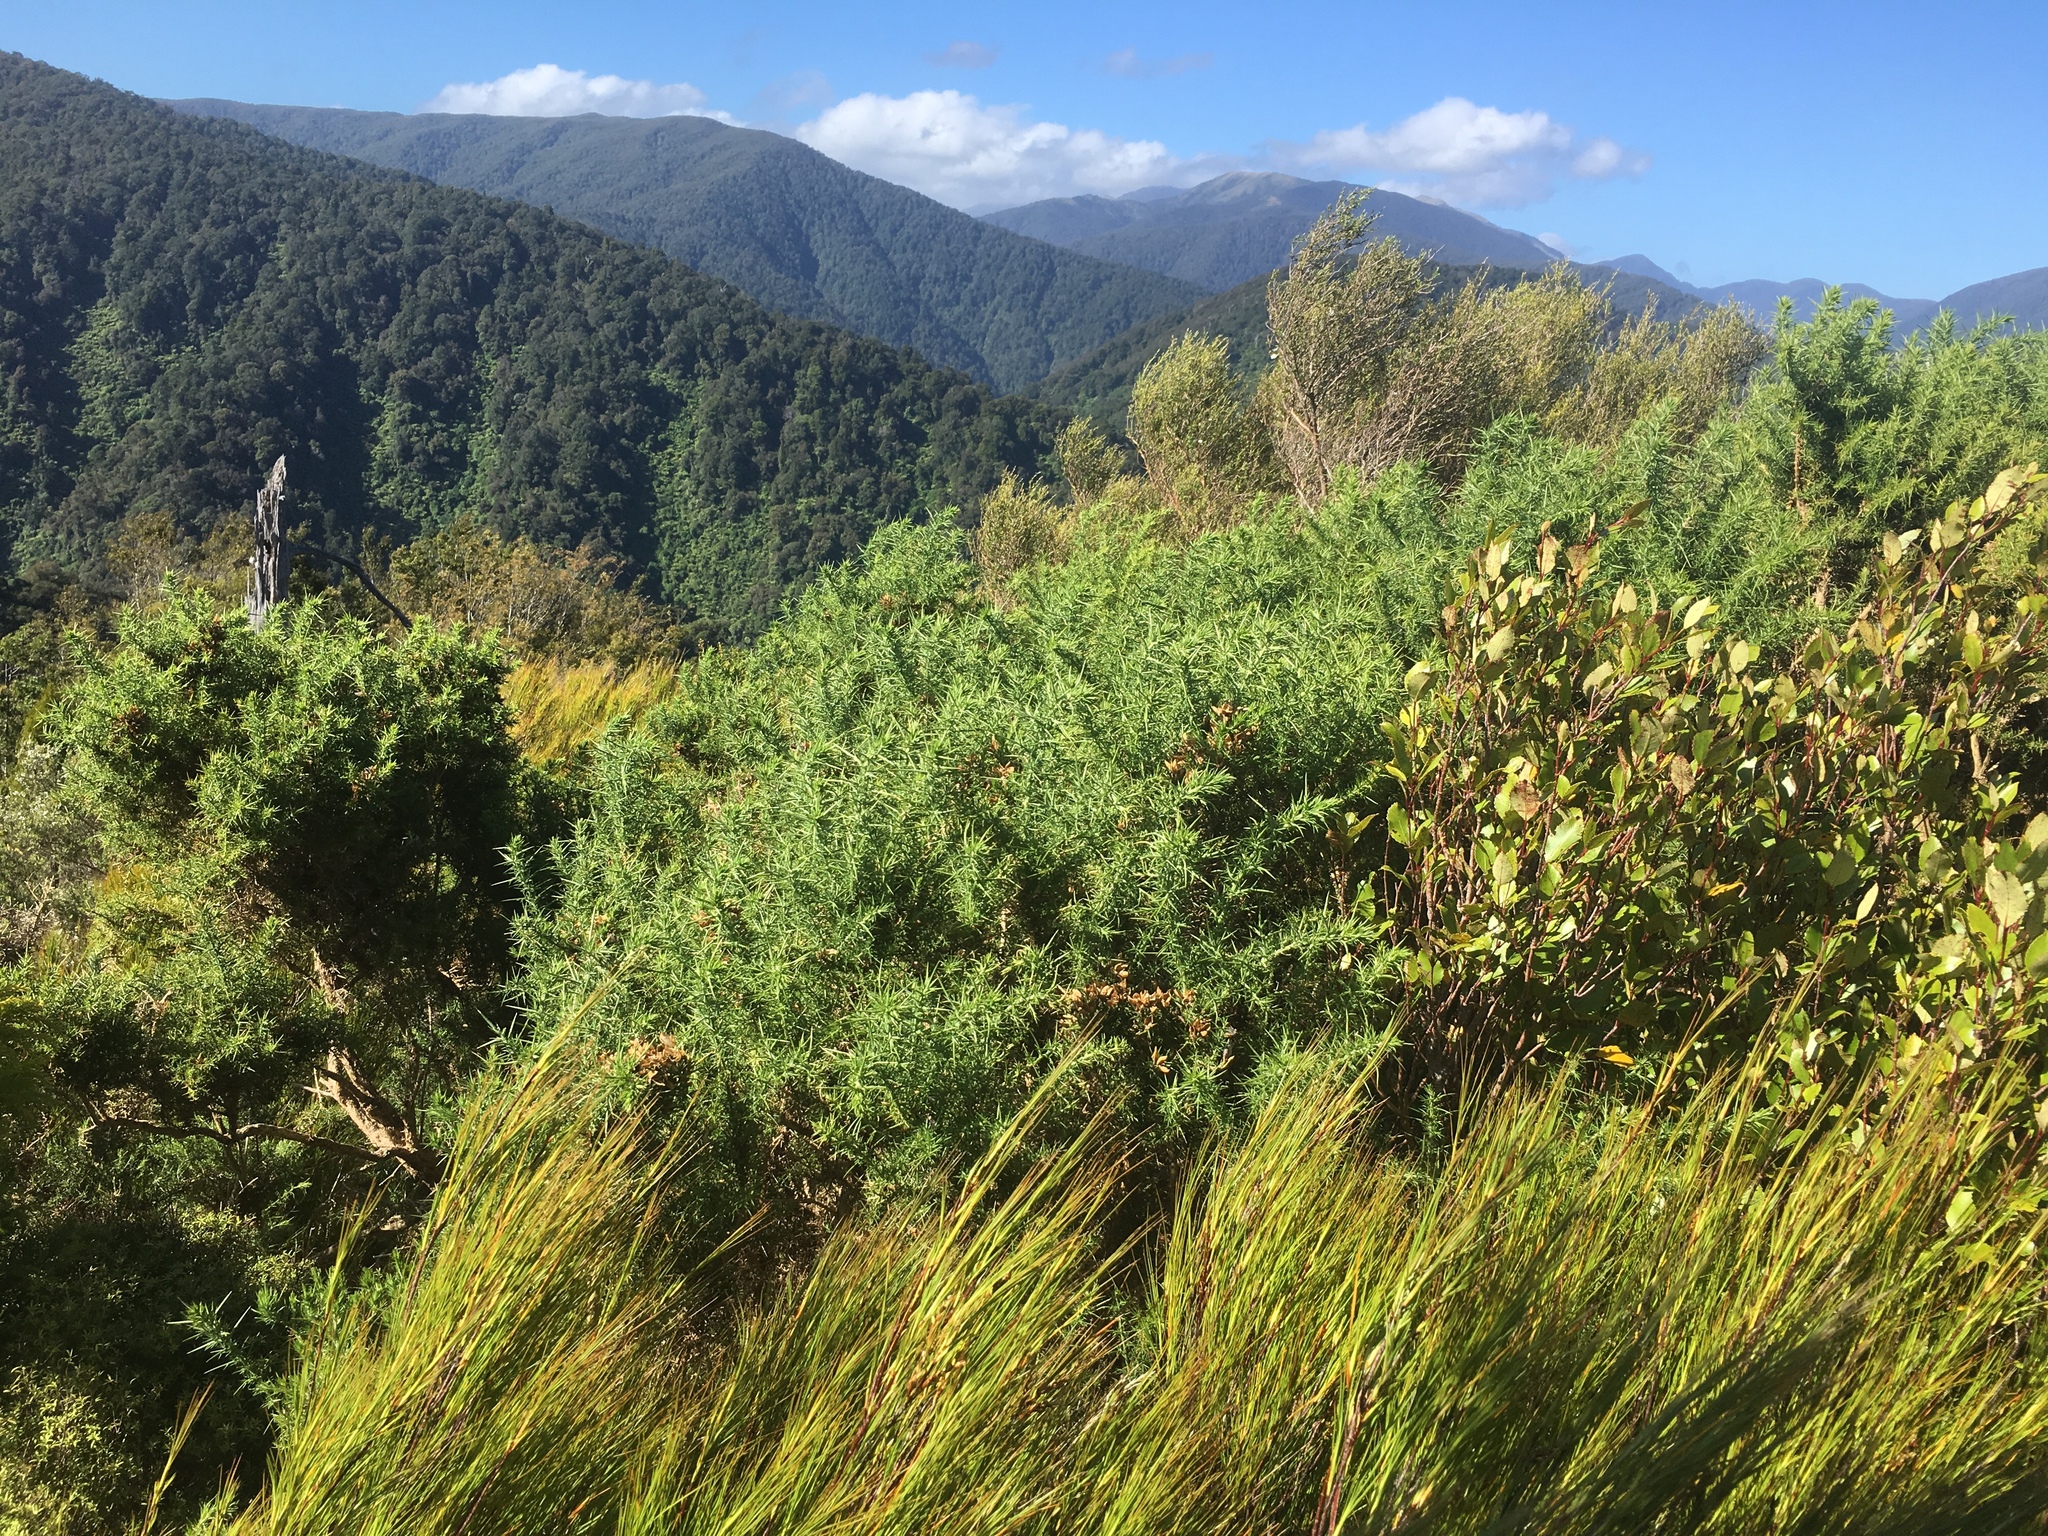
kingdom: Plantae
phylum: Tracheophyta
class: Magnoliopsida
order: Fabales
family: Fabaceae
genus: Ulex
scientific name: Ulex europaeus
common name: Common gorse
